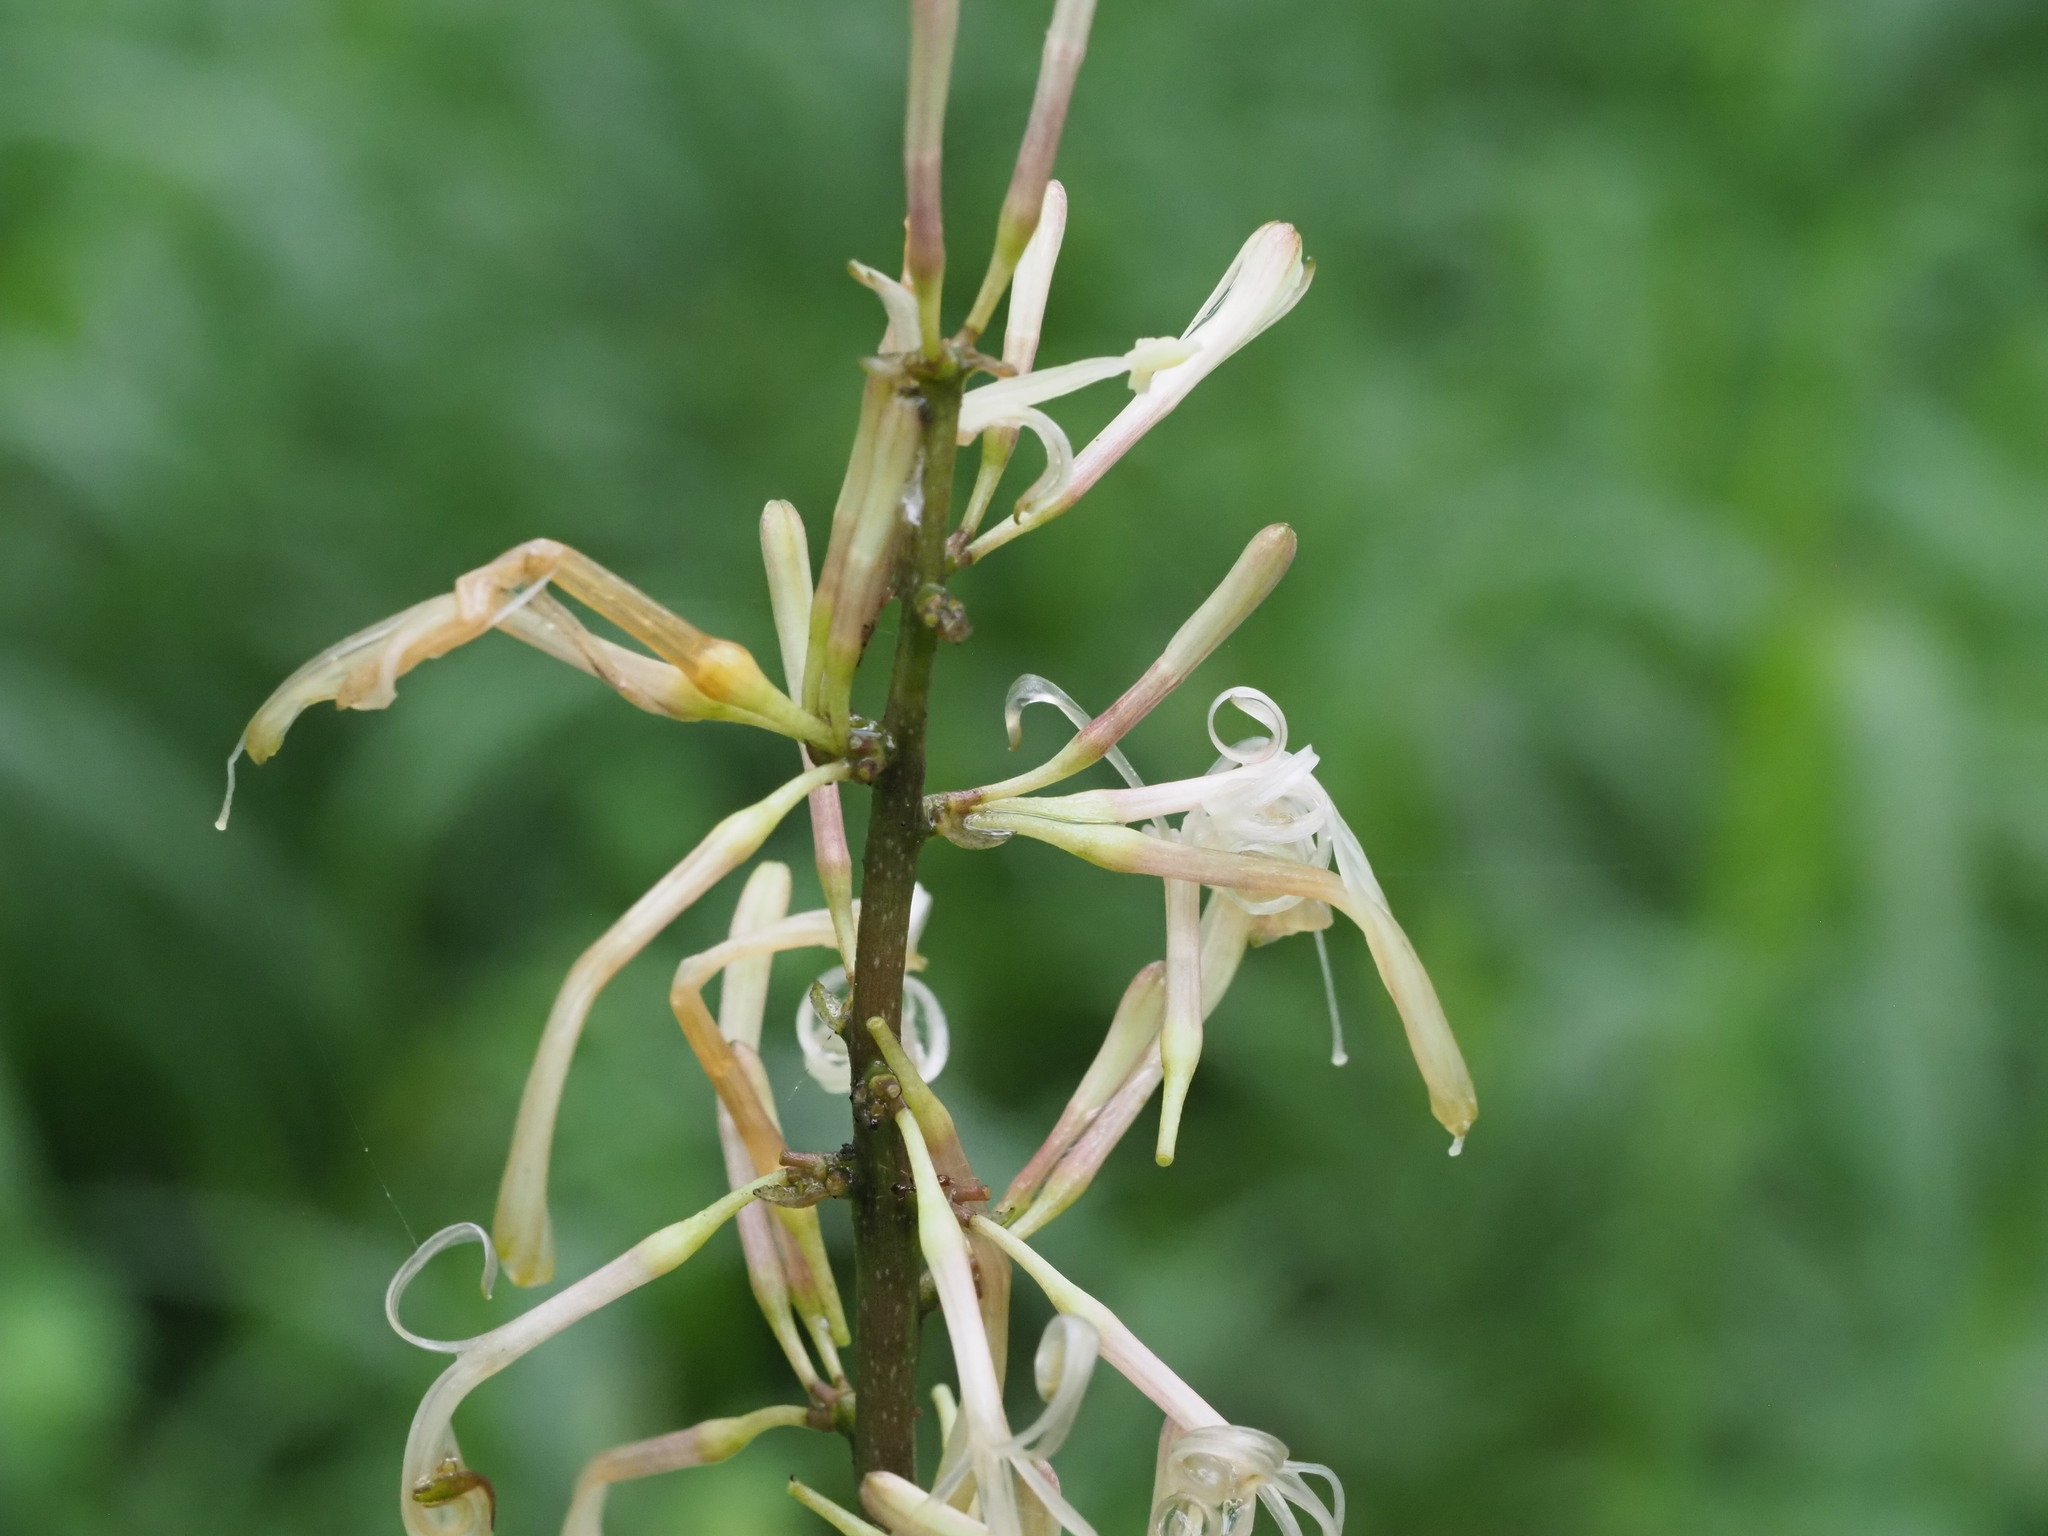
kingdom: Plantae
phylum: Tracheophyta
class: Liliopsida
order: Asparagales
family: Asparagaceae
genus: Dracaena
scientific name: Dracaena trifasciata
